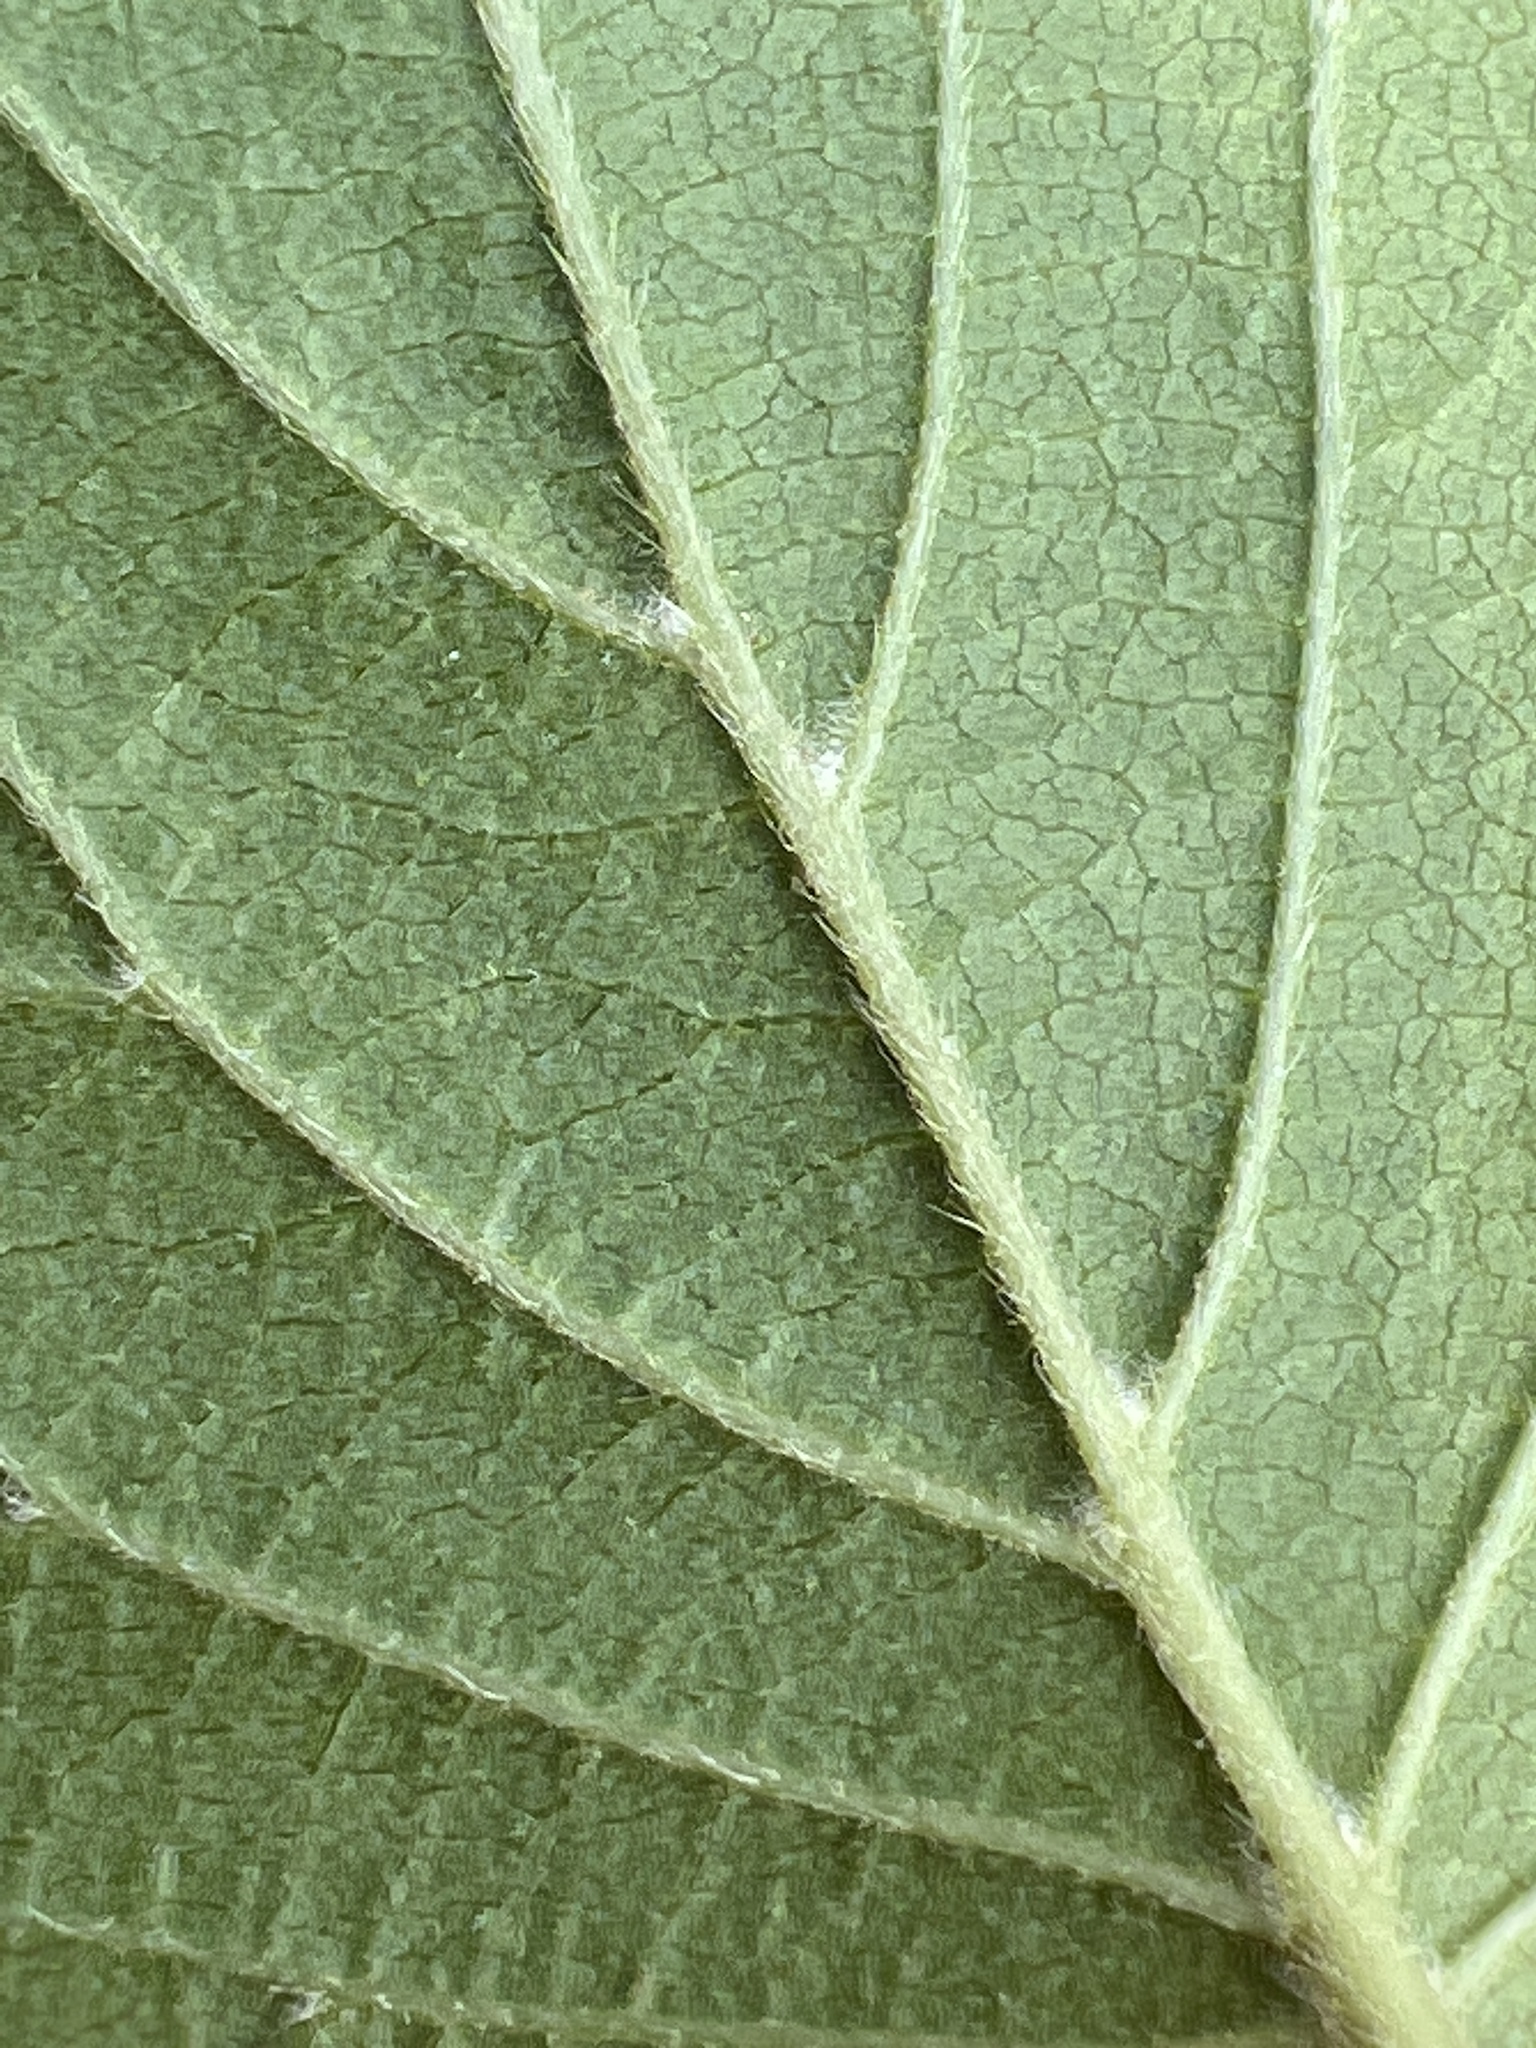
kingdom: Plantae
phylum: Tracheophyta
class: Magnoliopsida
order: Dipsacales
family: Viburnaceae
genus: Viburnum
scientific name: Viburnum scabrellum
